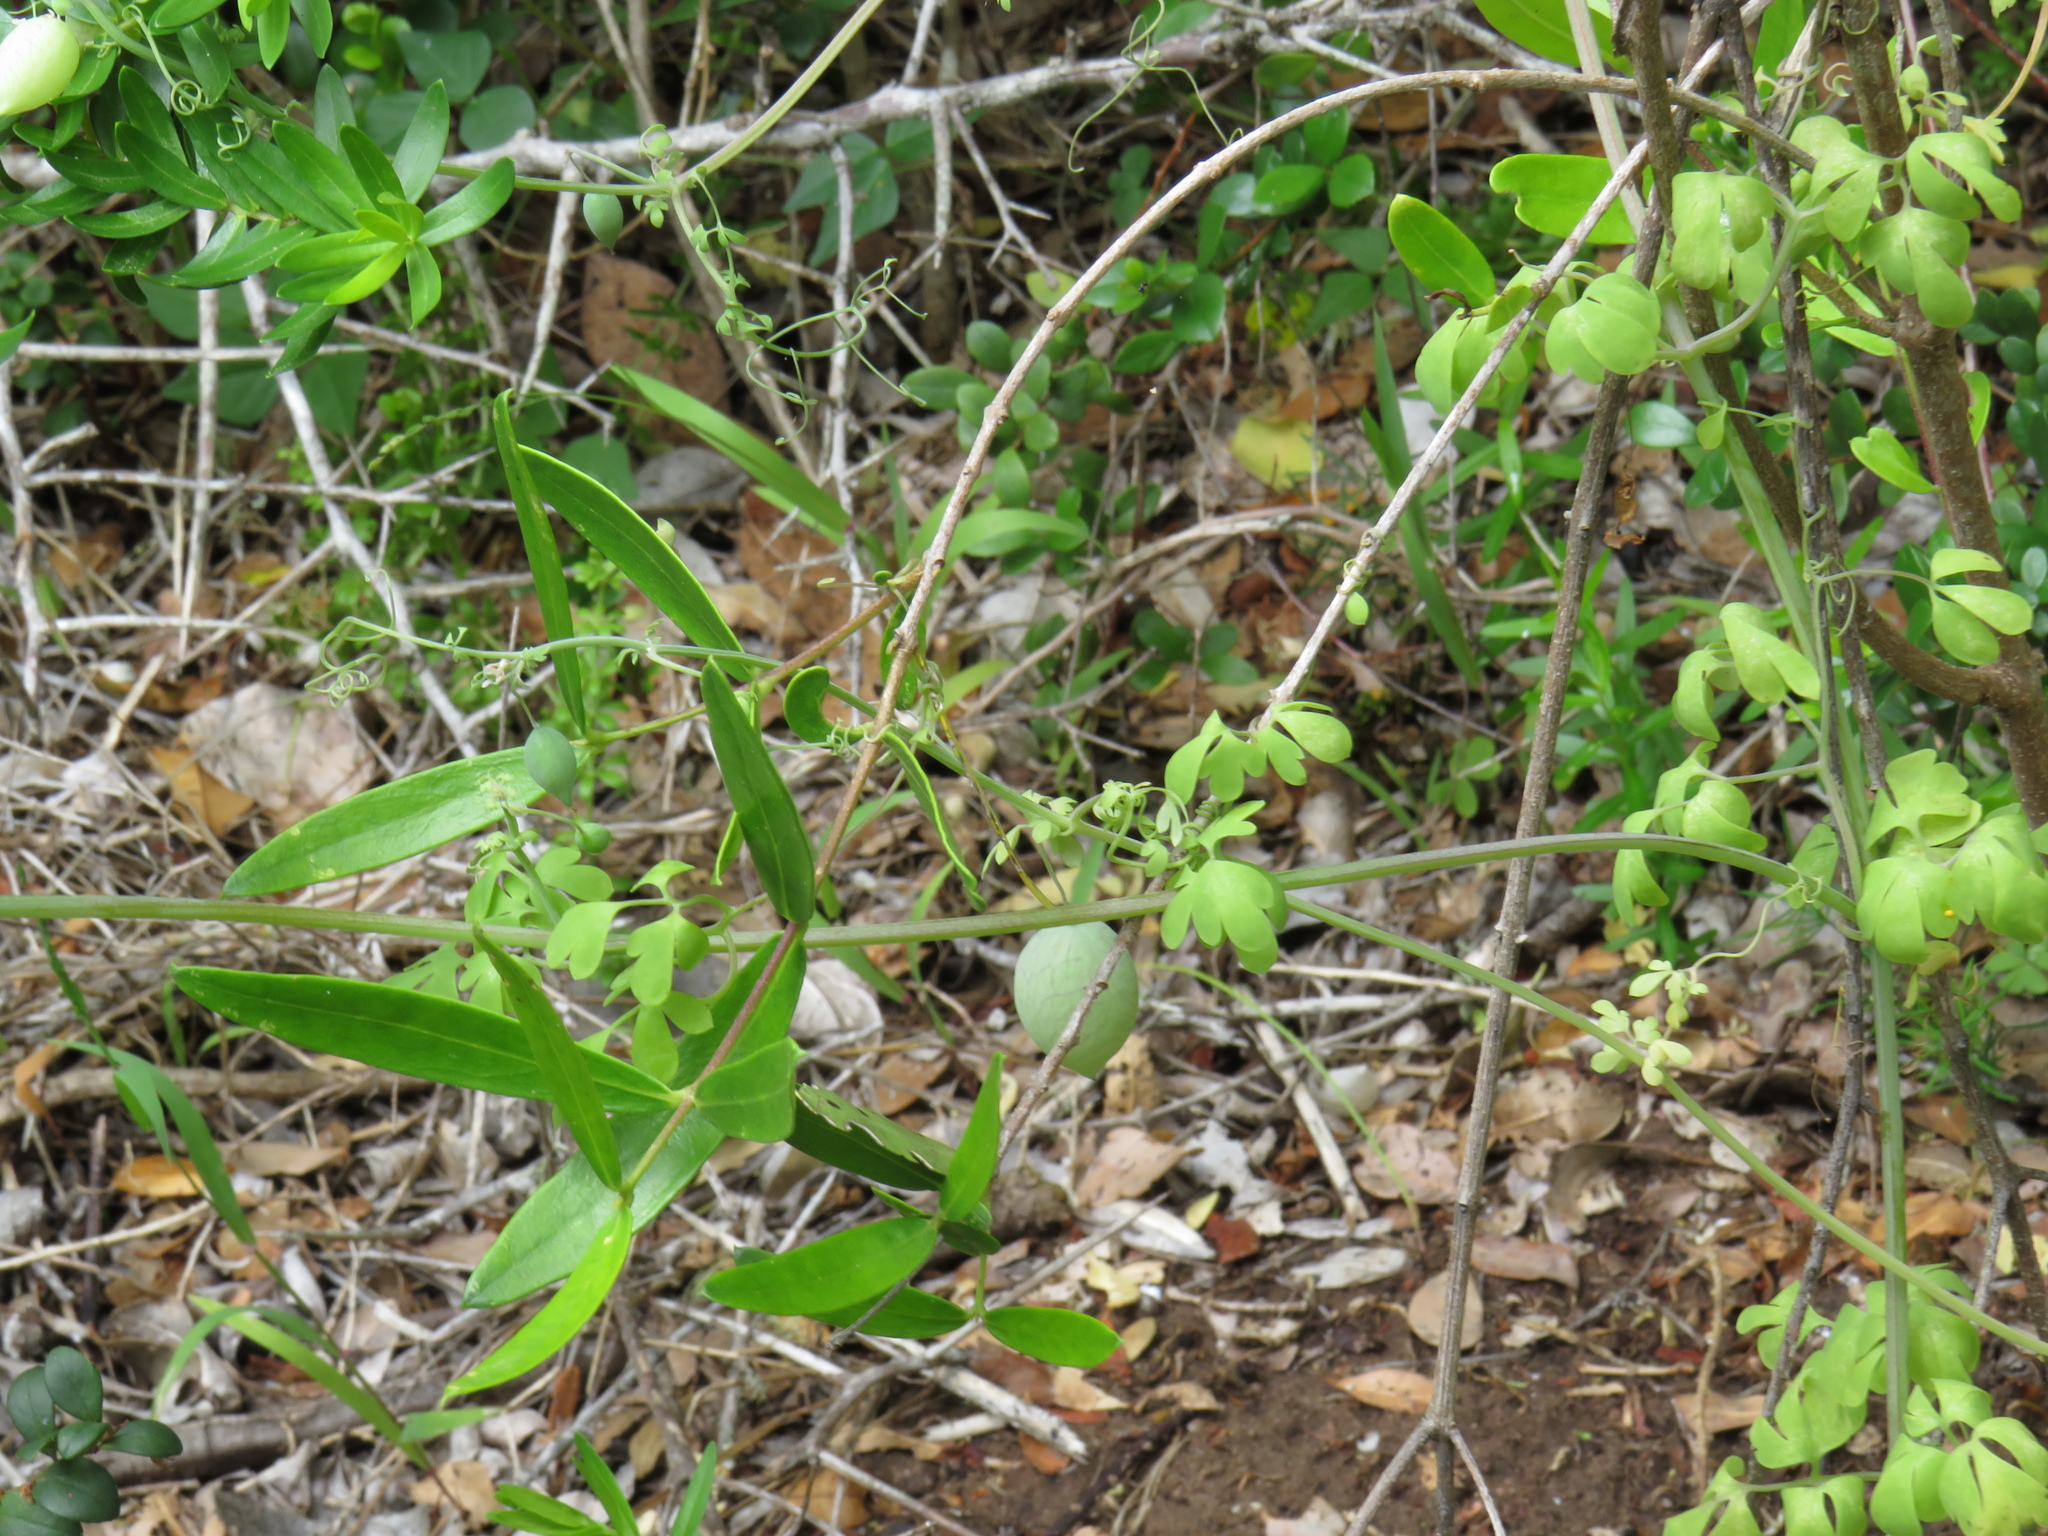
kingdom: Plantae
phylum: Tracheophyta
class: Magnoliopsida
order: Ranunculales
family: Papaveraceae
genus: Cysticapnos
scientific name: Cysticapnos vesicaria
